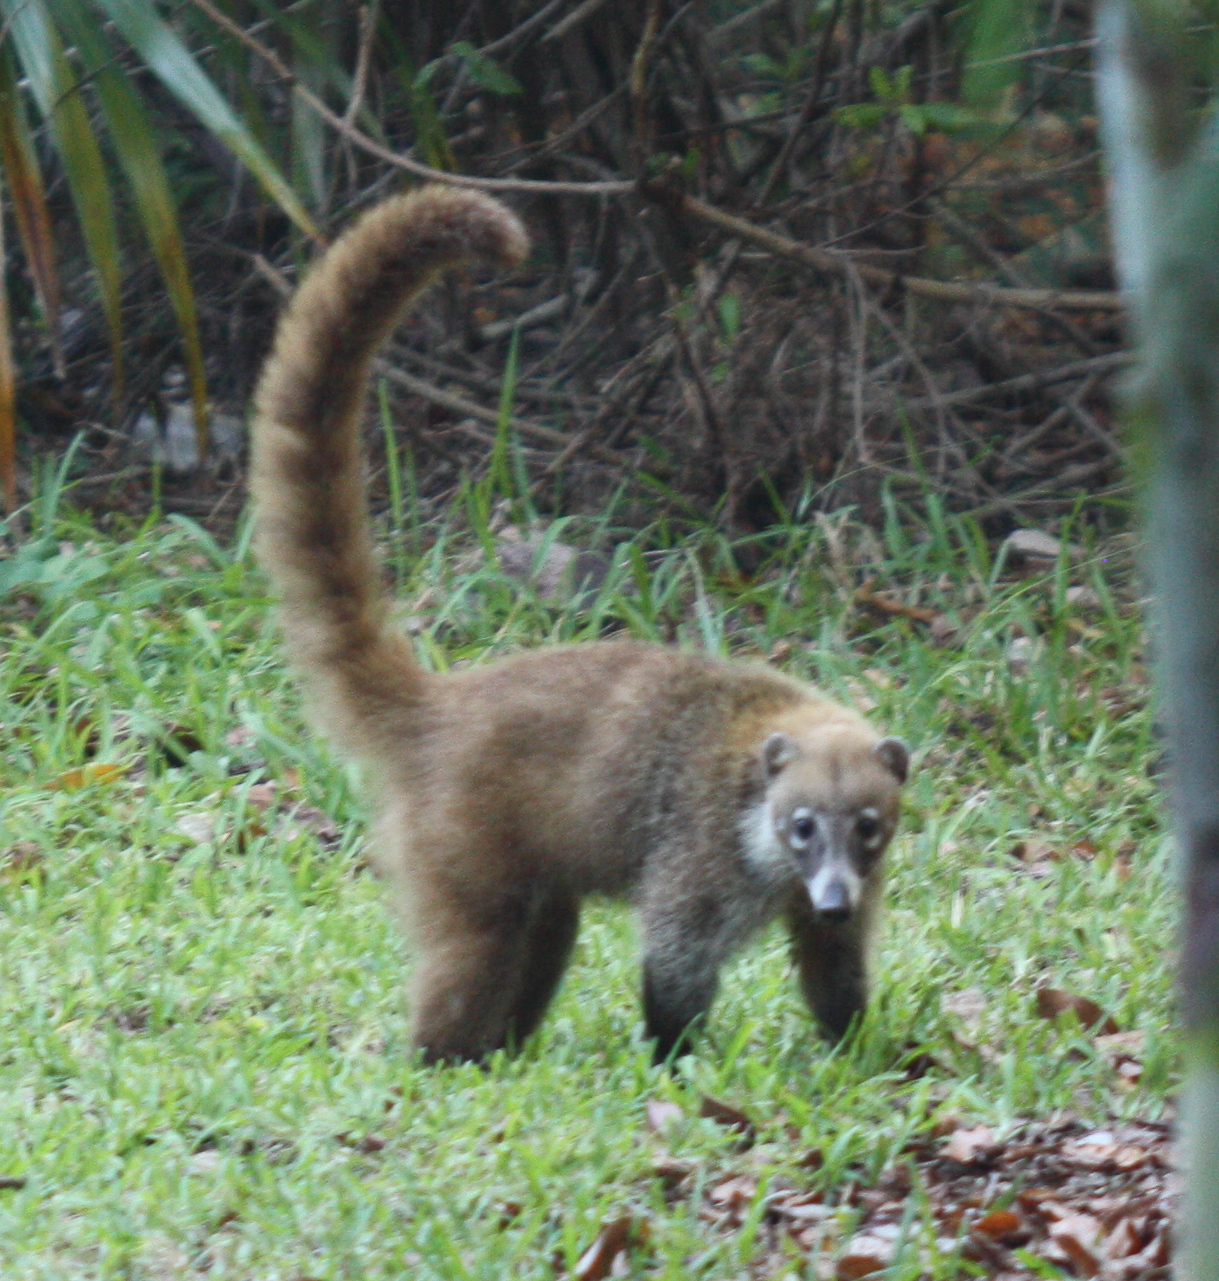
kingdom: Animalia
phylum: Chordata
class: Mammalia
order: Carnivora
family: Procyonidae
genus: Nasua
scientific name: Nasua narica
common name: White-nosed coati
